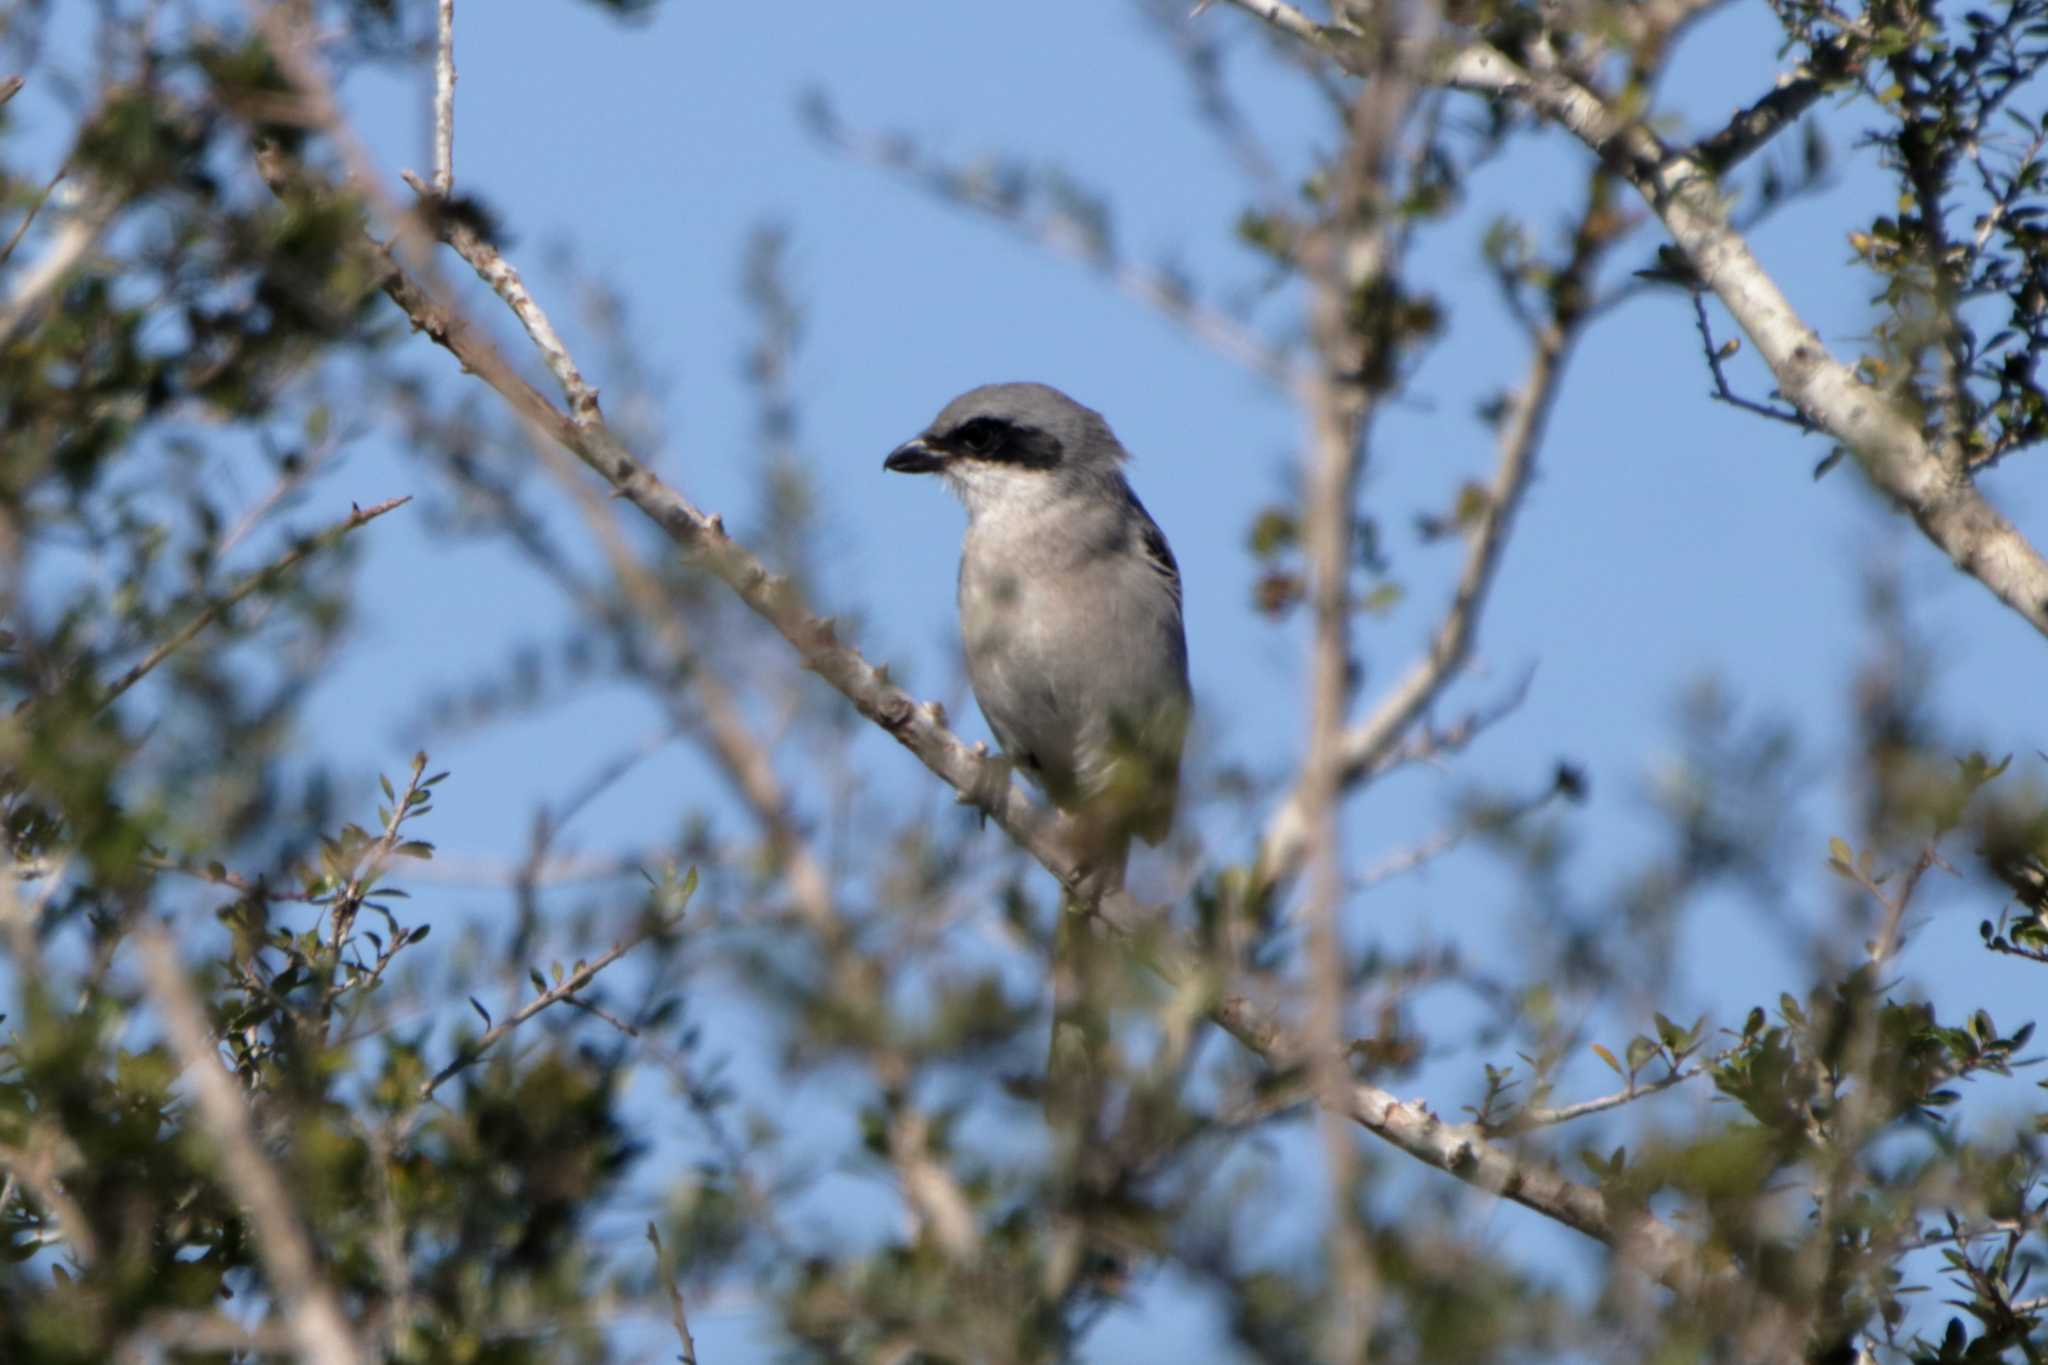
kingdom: Animalia
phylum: Chordata
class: Aves
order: Passeriformes
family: Laniidae
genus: Lanius
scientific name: Lanius ludovicianus
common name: Loggerhead shrike
